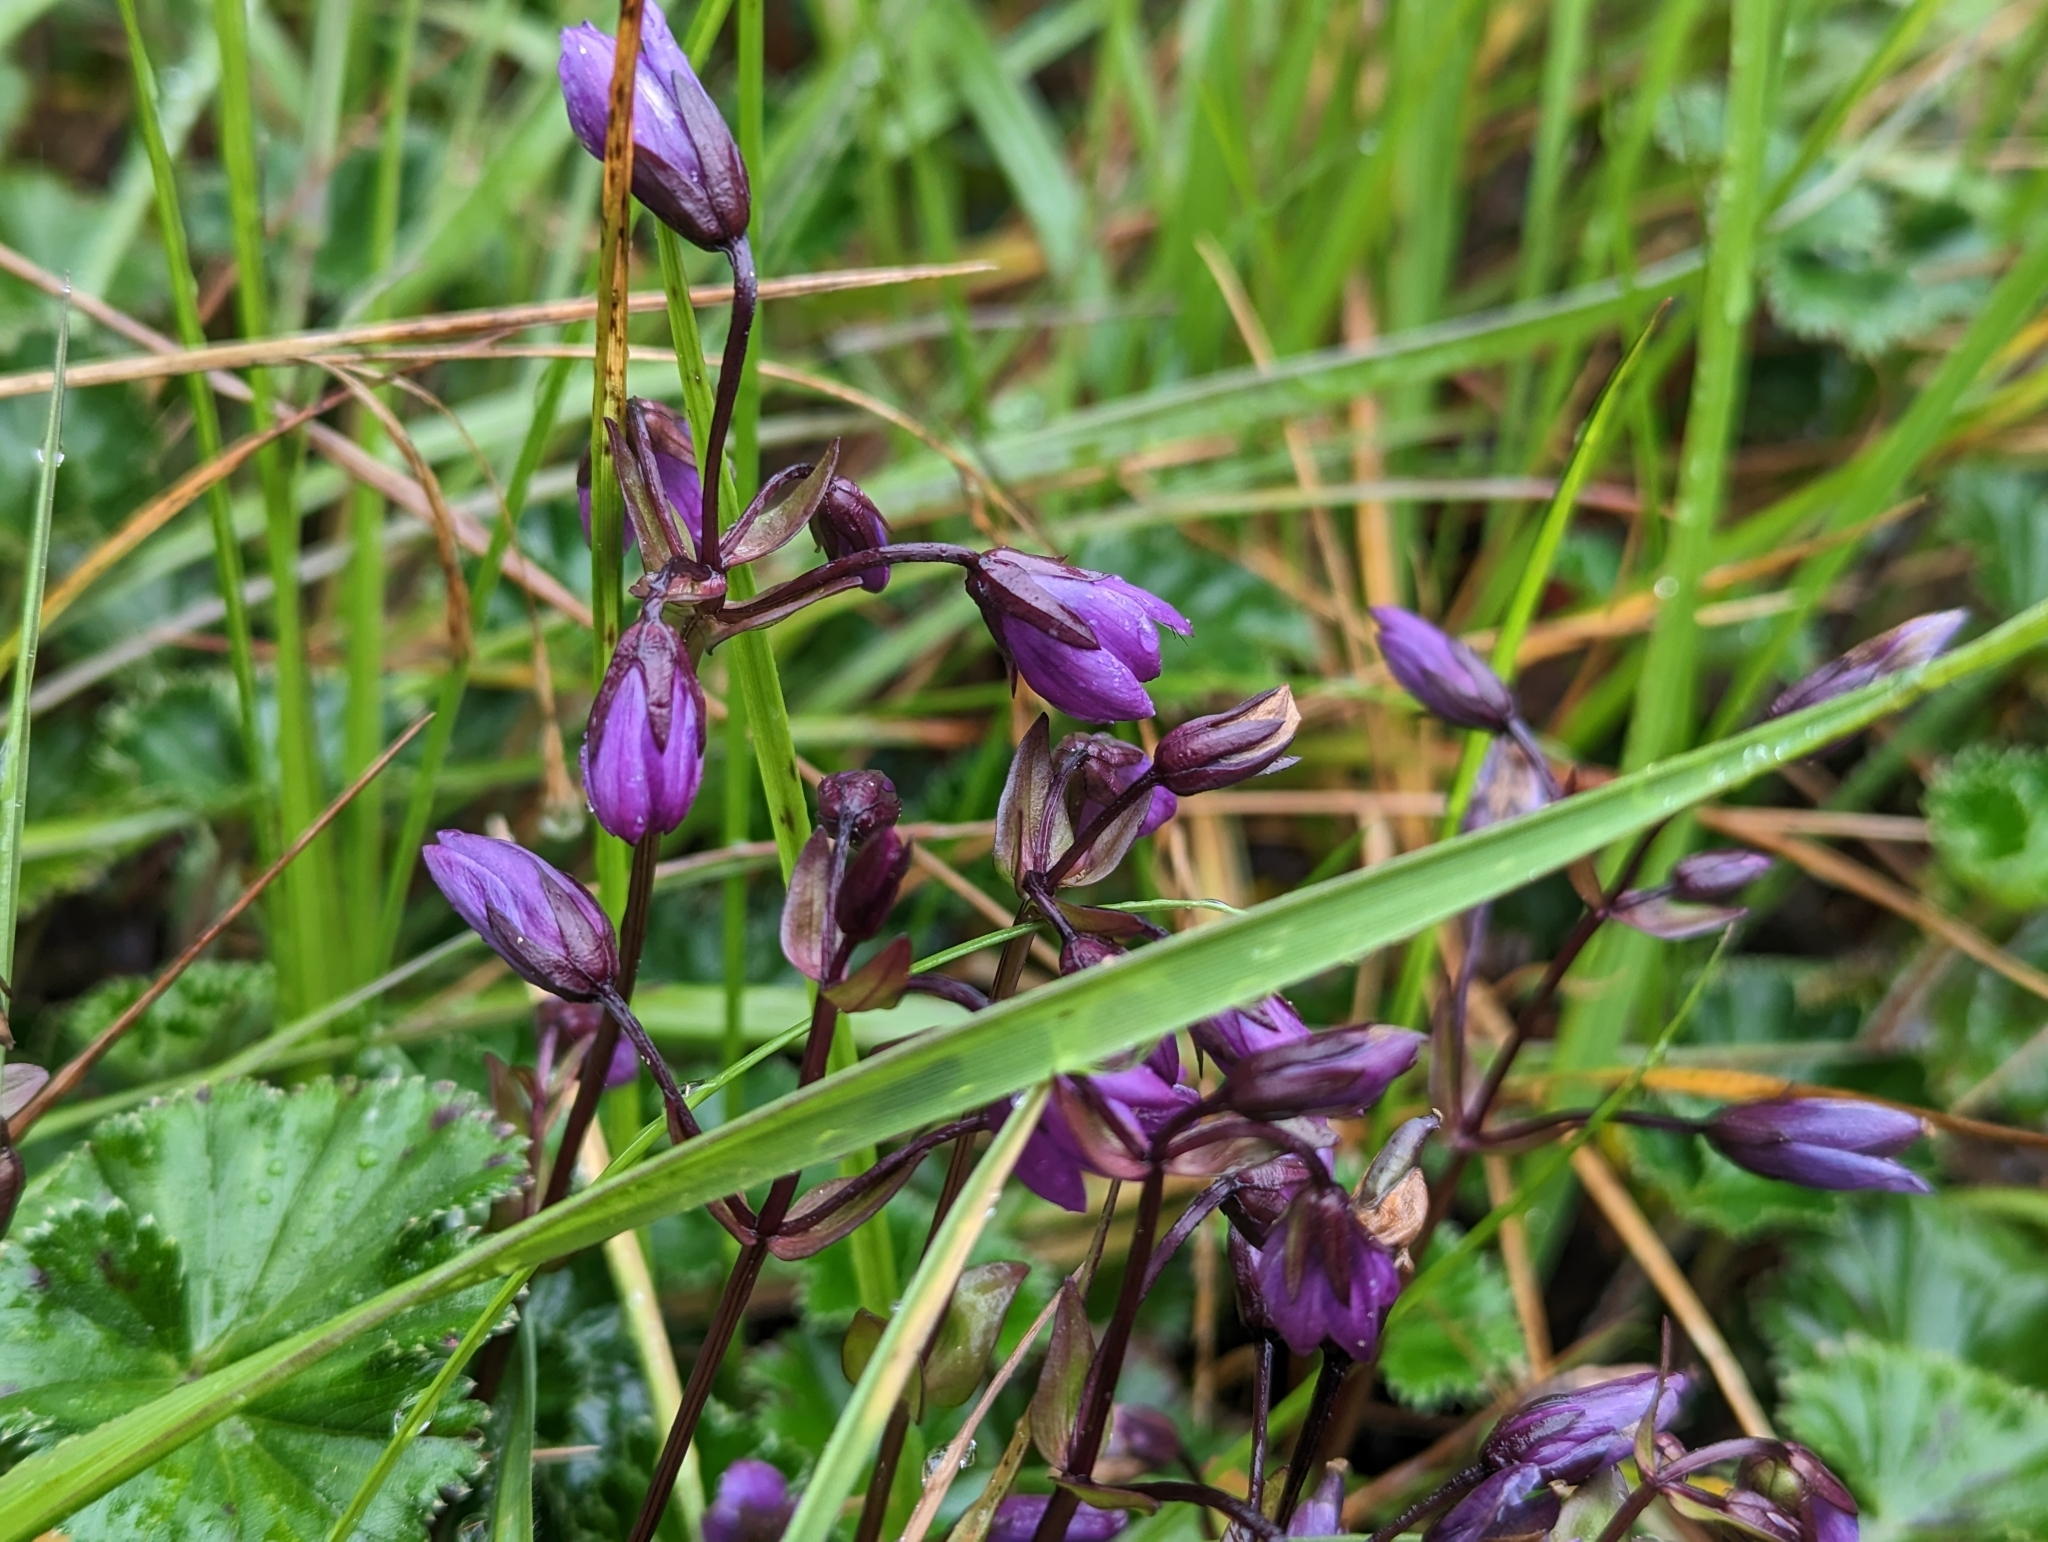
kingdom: Plantae
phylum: Tracheophyta
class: Magnoliopsida
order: Gentianales
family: Gentianaceae
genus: Gentianella
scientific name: Gentianella rapunculoides
